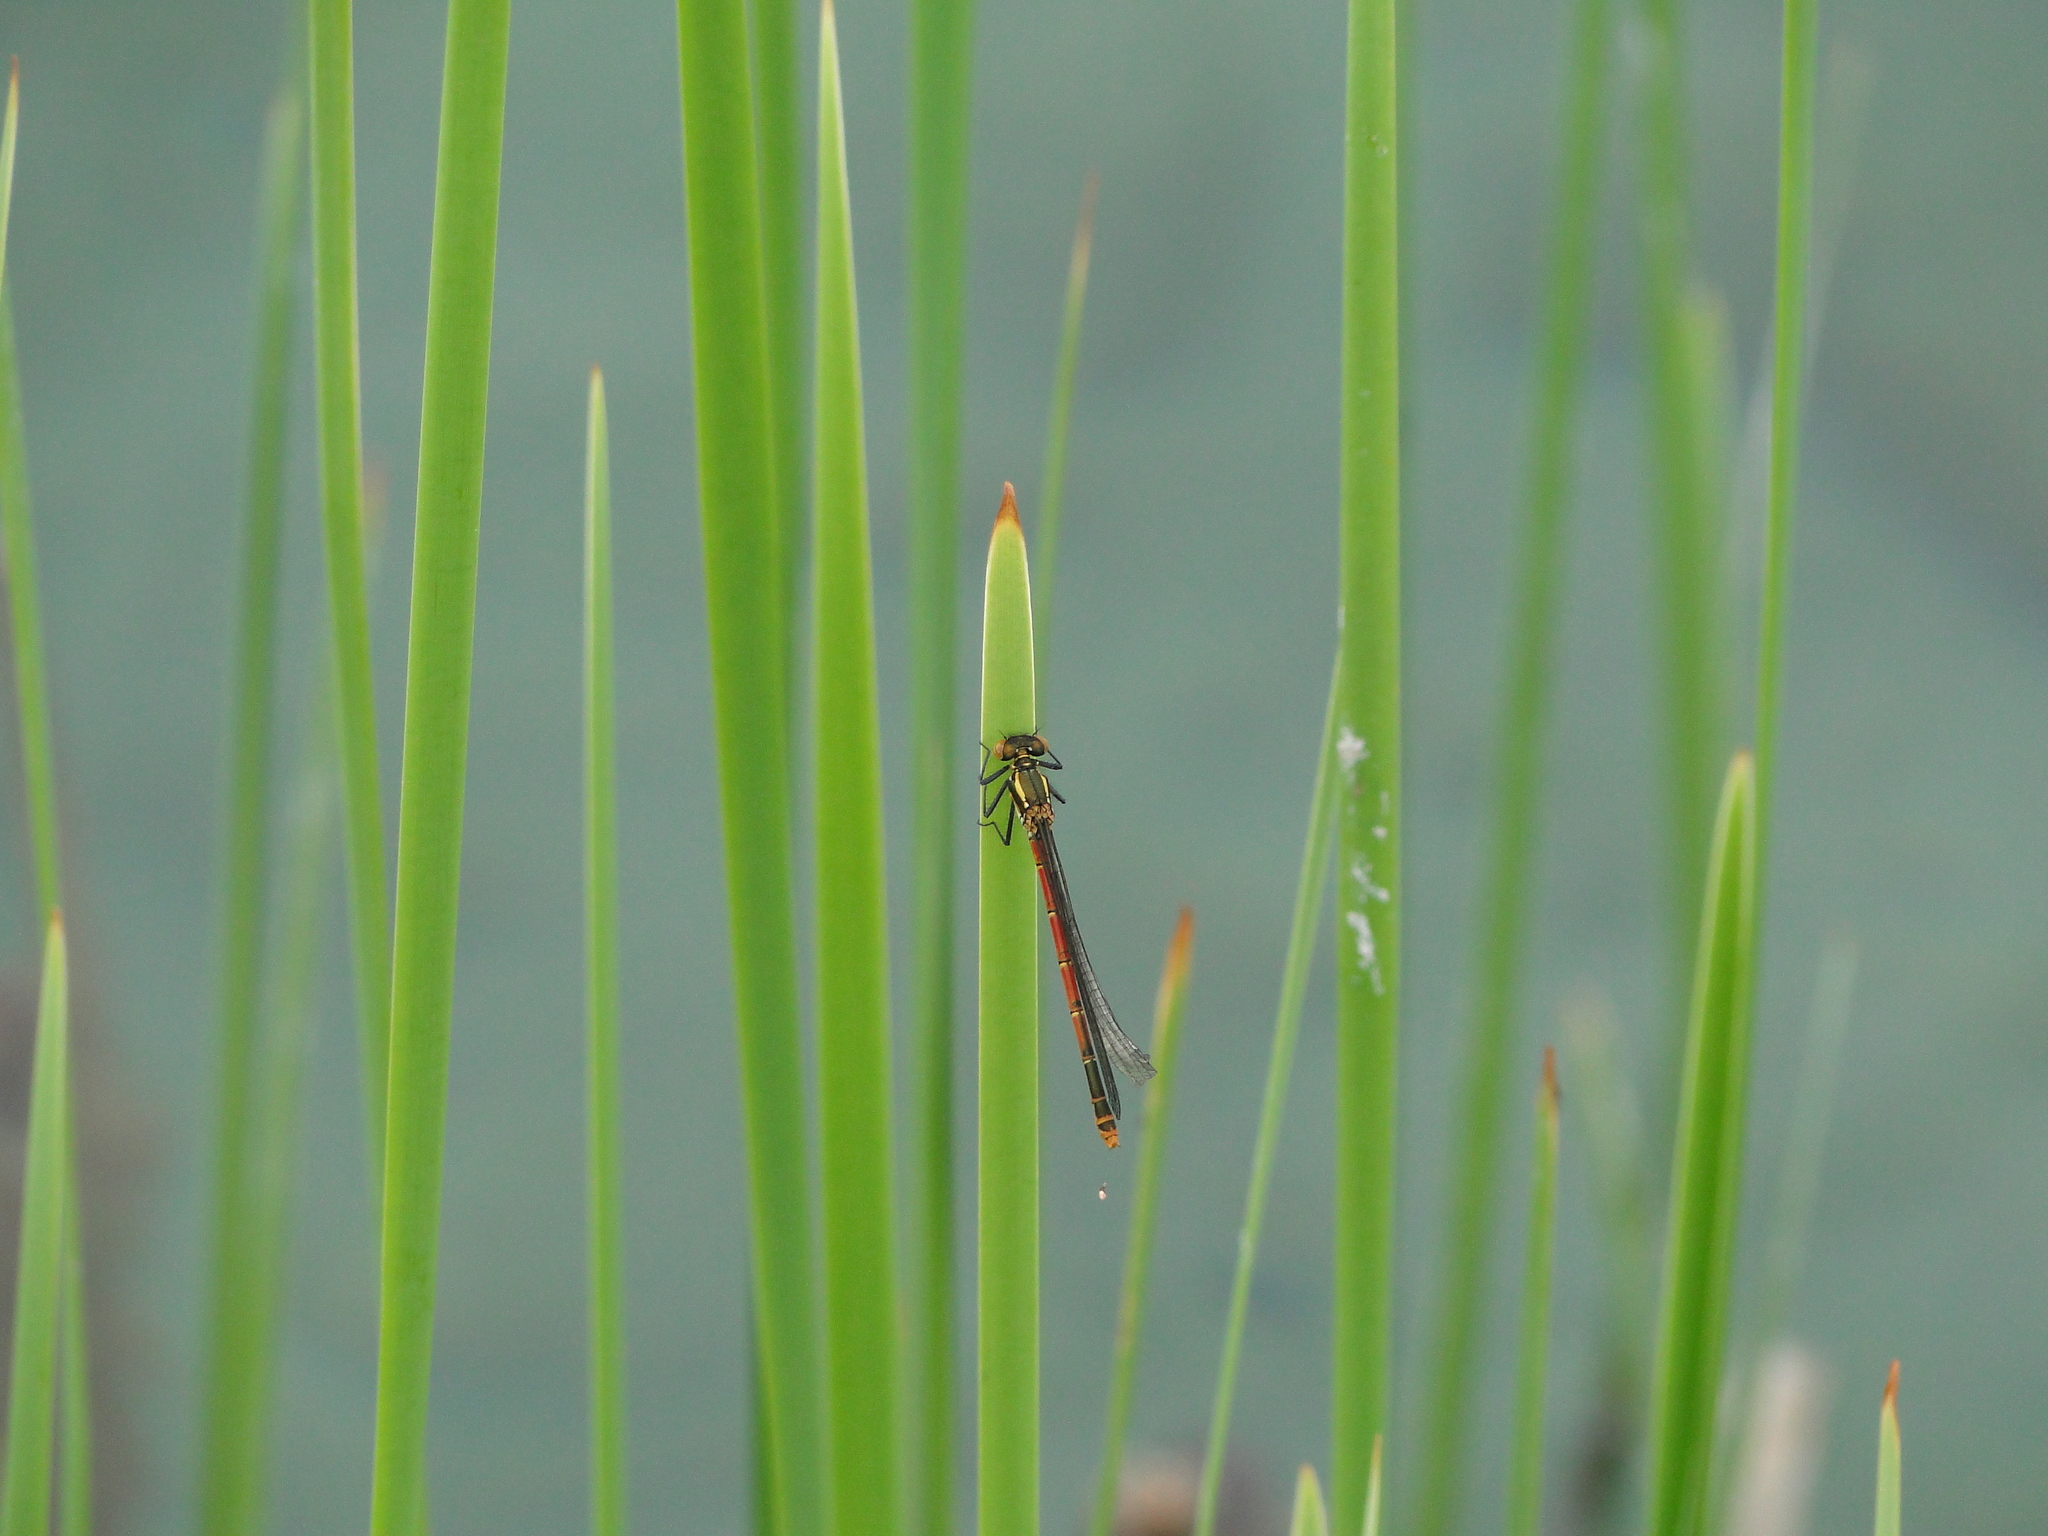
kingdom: Animalia
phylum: Arthropoda
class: Insecta
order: Odonata
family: Coenagrionidae
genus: Pyrrhosoma
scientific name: Pyrrhosoma nymphula
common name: Large red damsel
